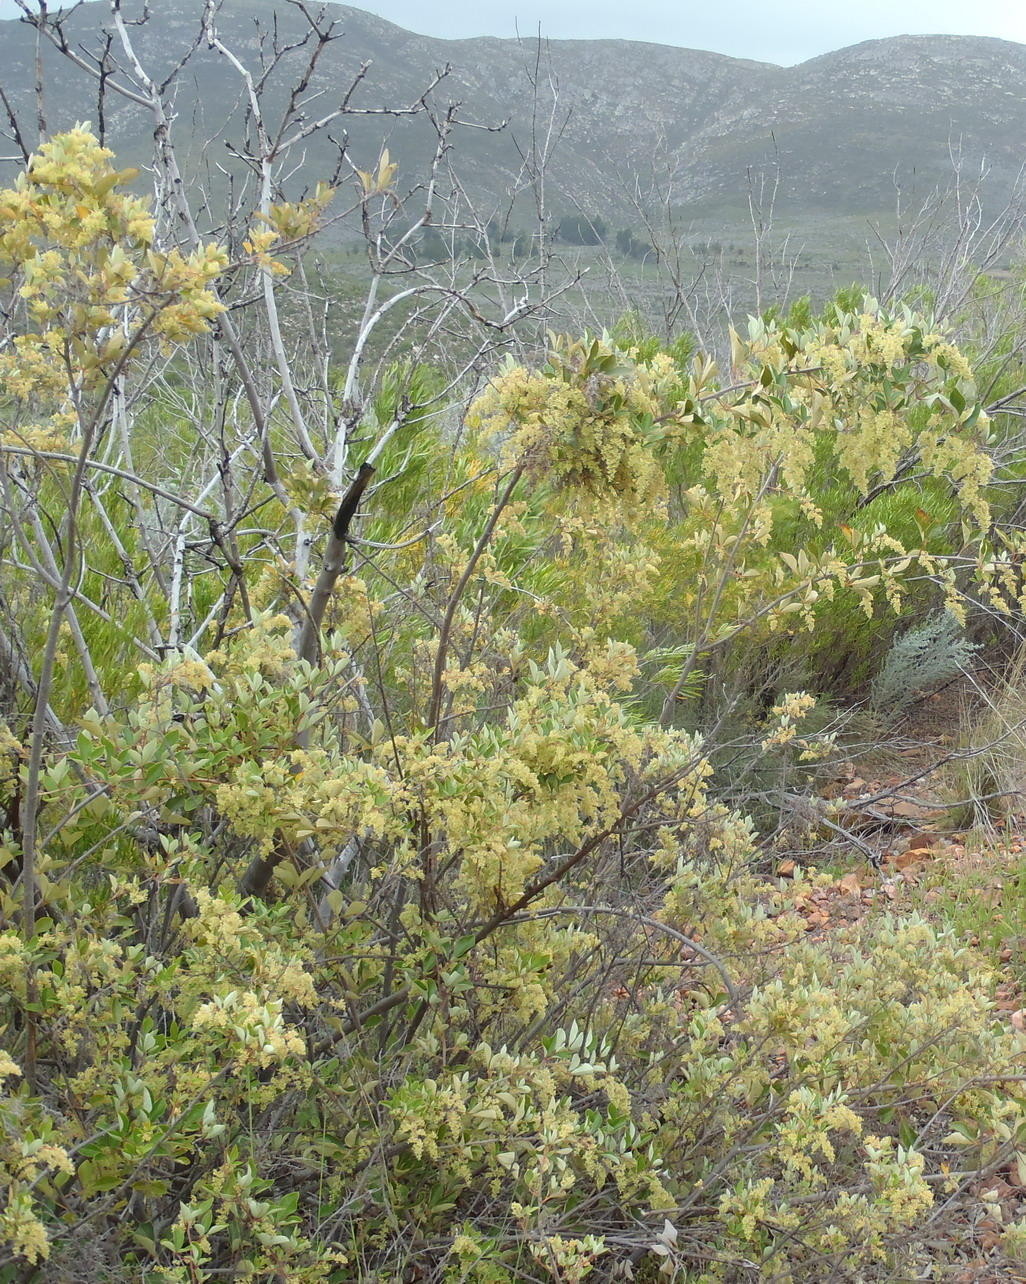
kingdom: Plantae
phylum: Tracheophyta
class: Magnoliopsida
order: Sapindales
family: Anacardiaceae
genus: Searsia
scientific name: Searsia tomentosa
